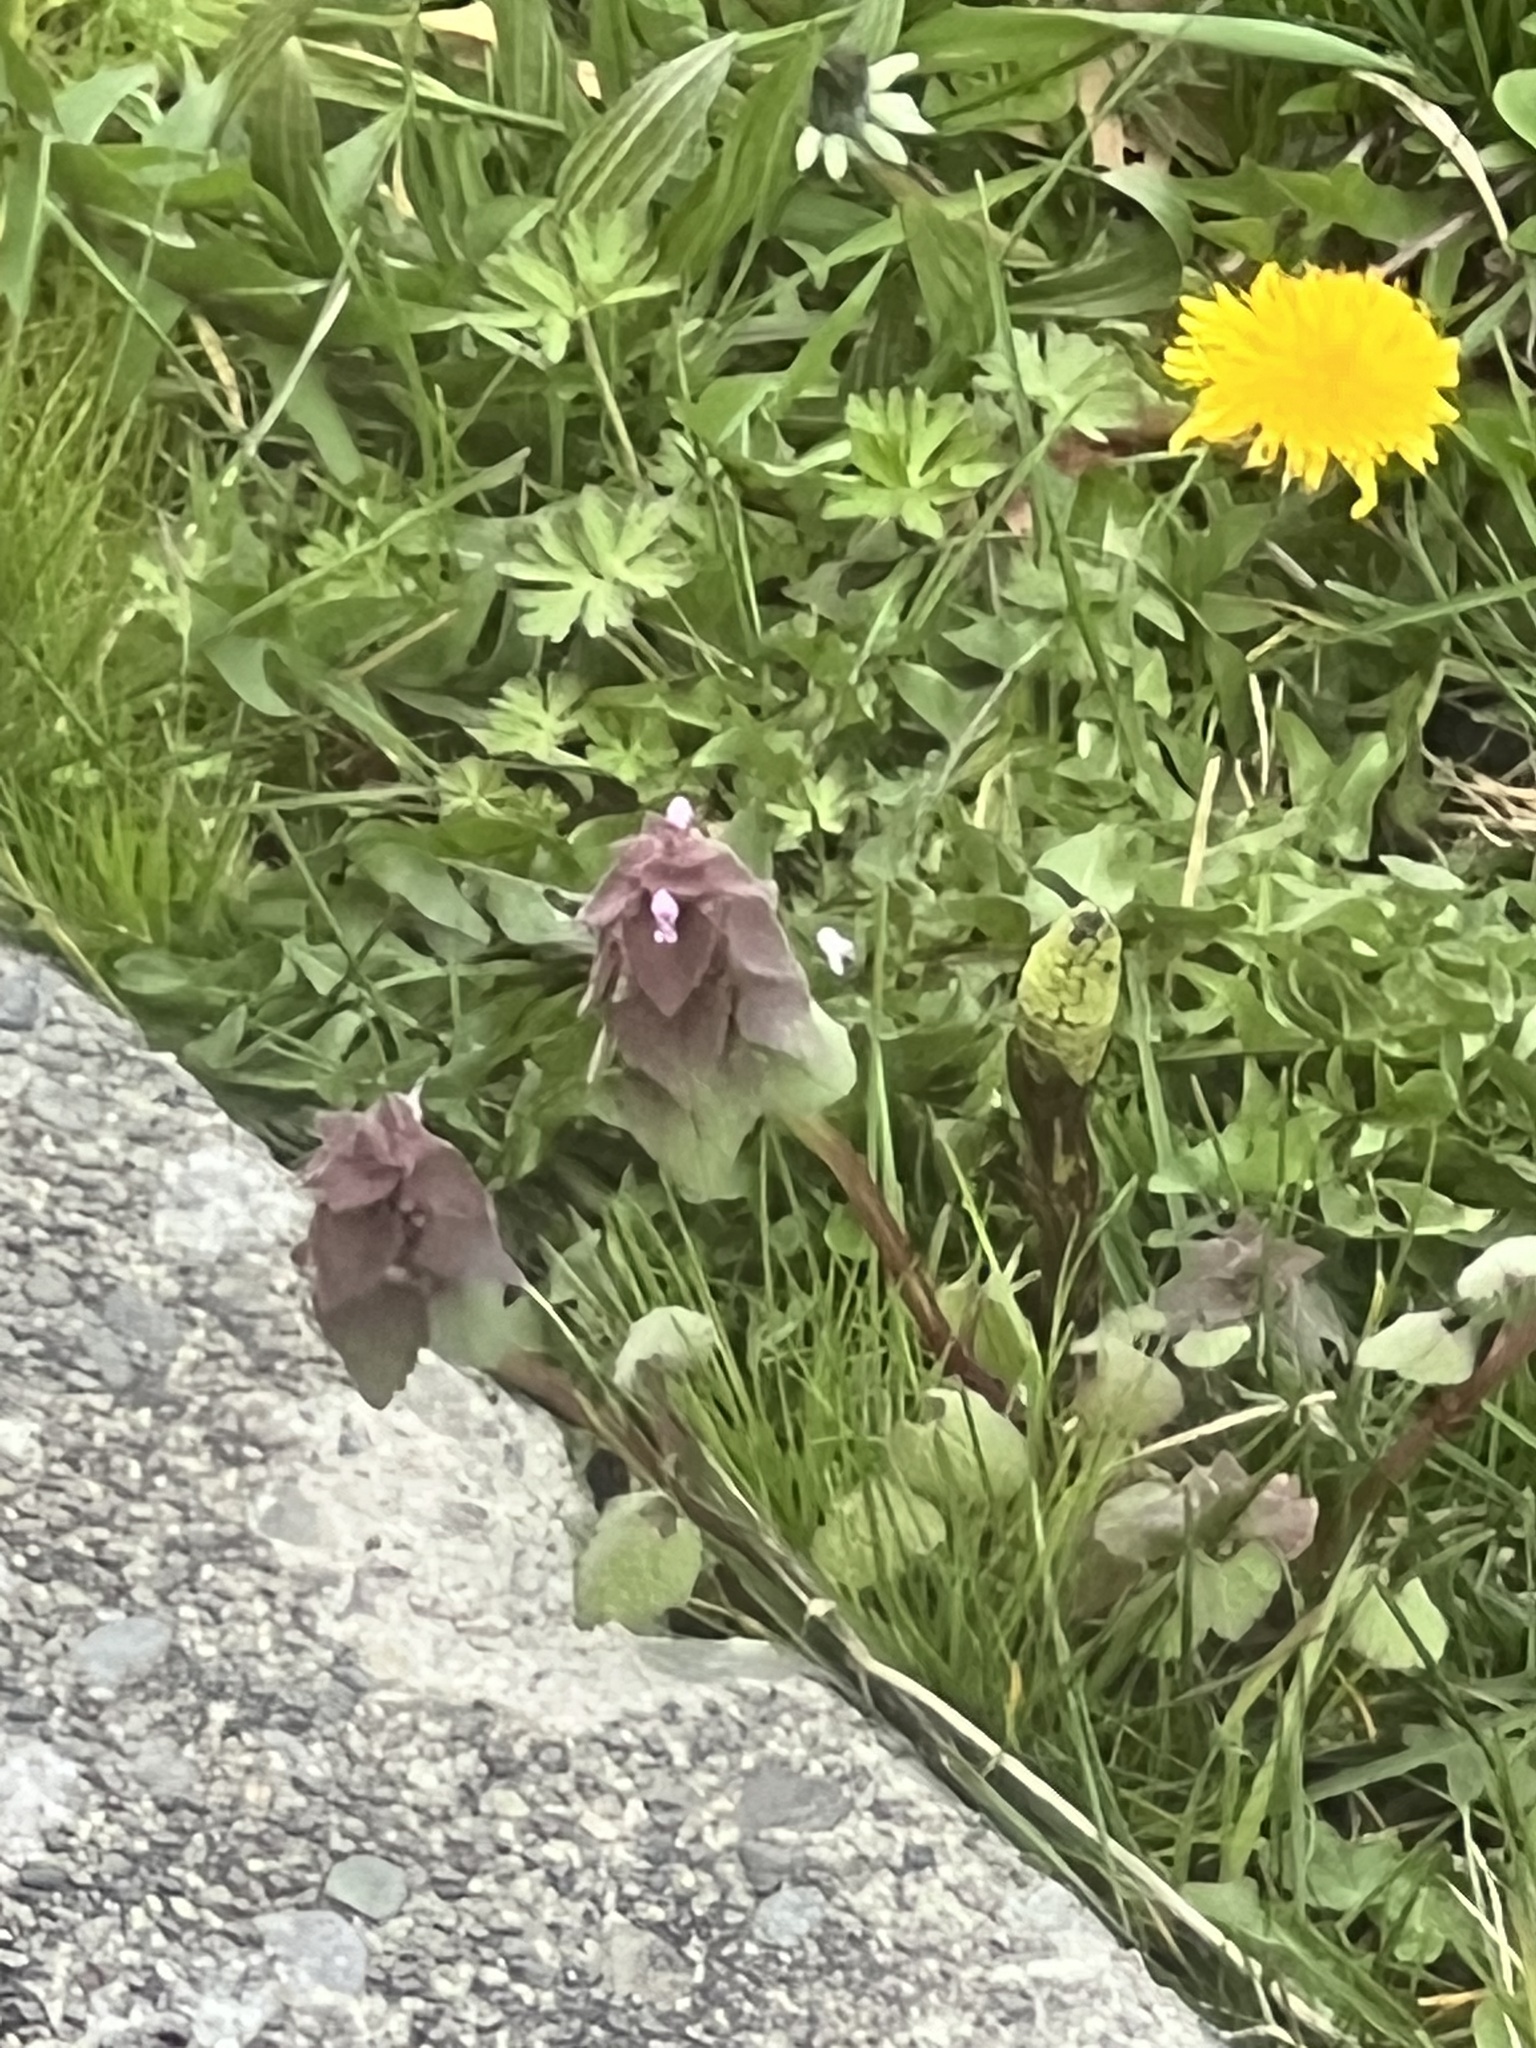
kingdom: Plantae
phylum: Tracheophyta
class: Magnoliopsida
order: Lamiales
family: Lamiaceae
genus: Lamium
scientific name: Lamium purpureum
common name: Red dead-nettle
